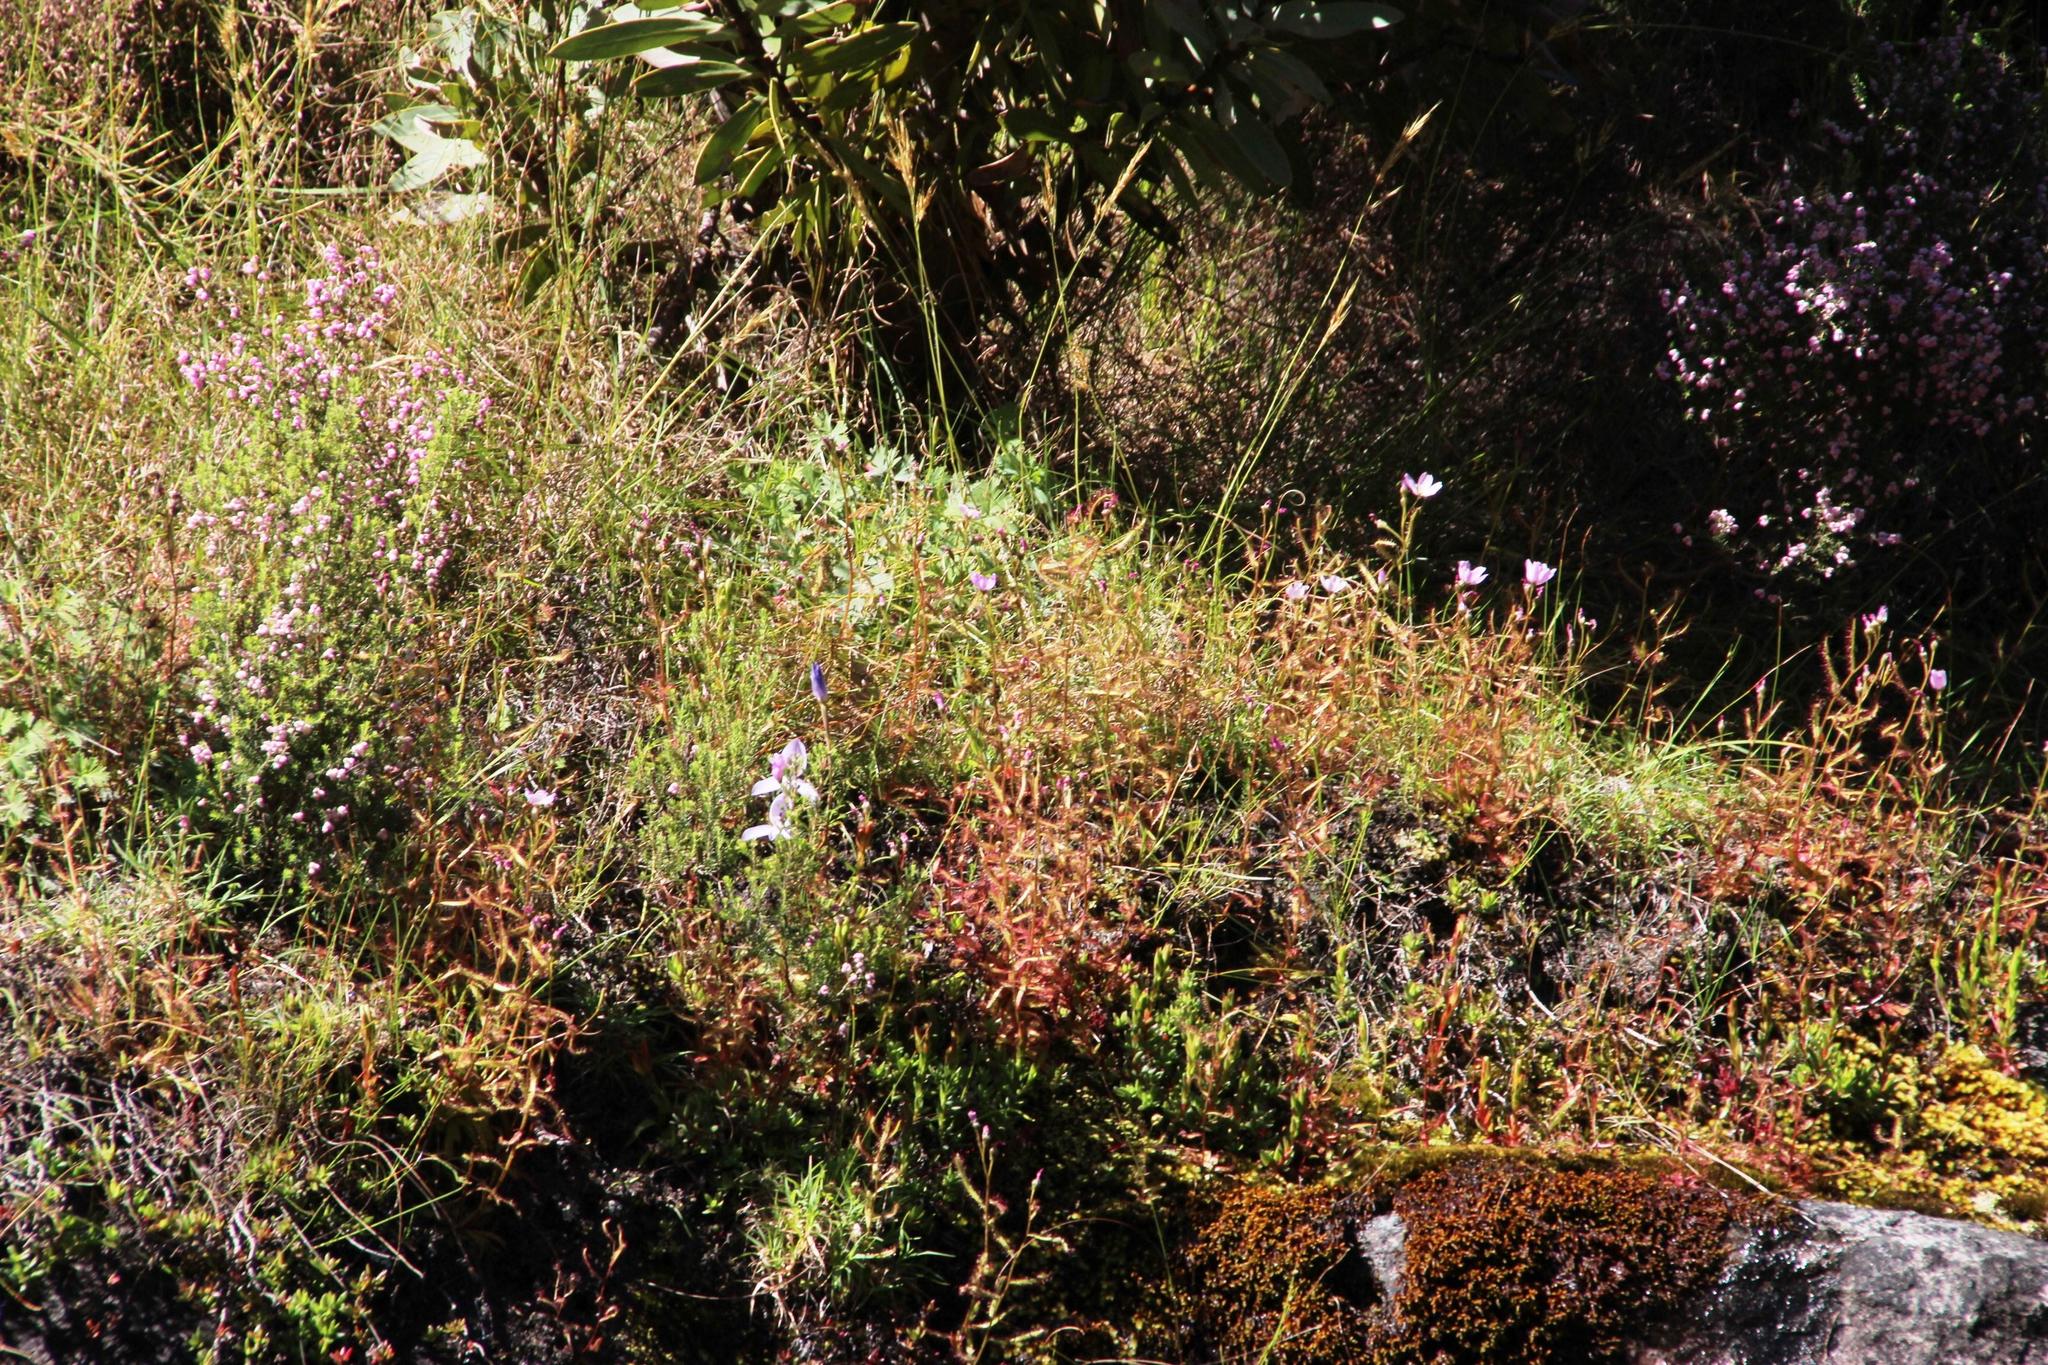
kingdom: Plantae
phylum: Tracheophyta
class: Magnoliopsida
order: Caryophyllales
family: Droseraceae
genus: Drosera
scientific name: Drosera cistiflora
